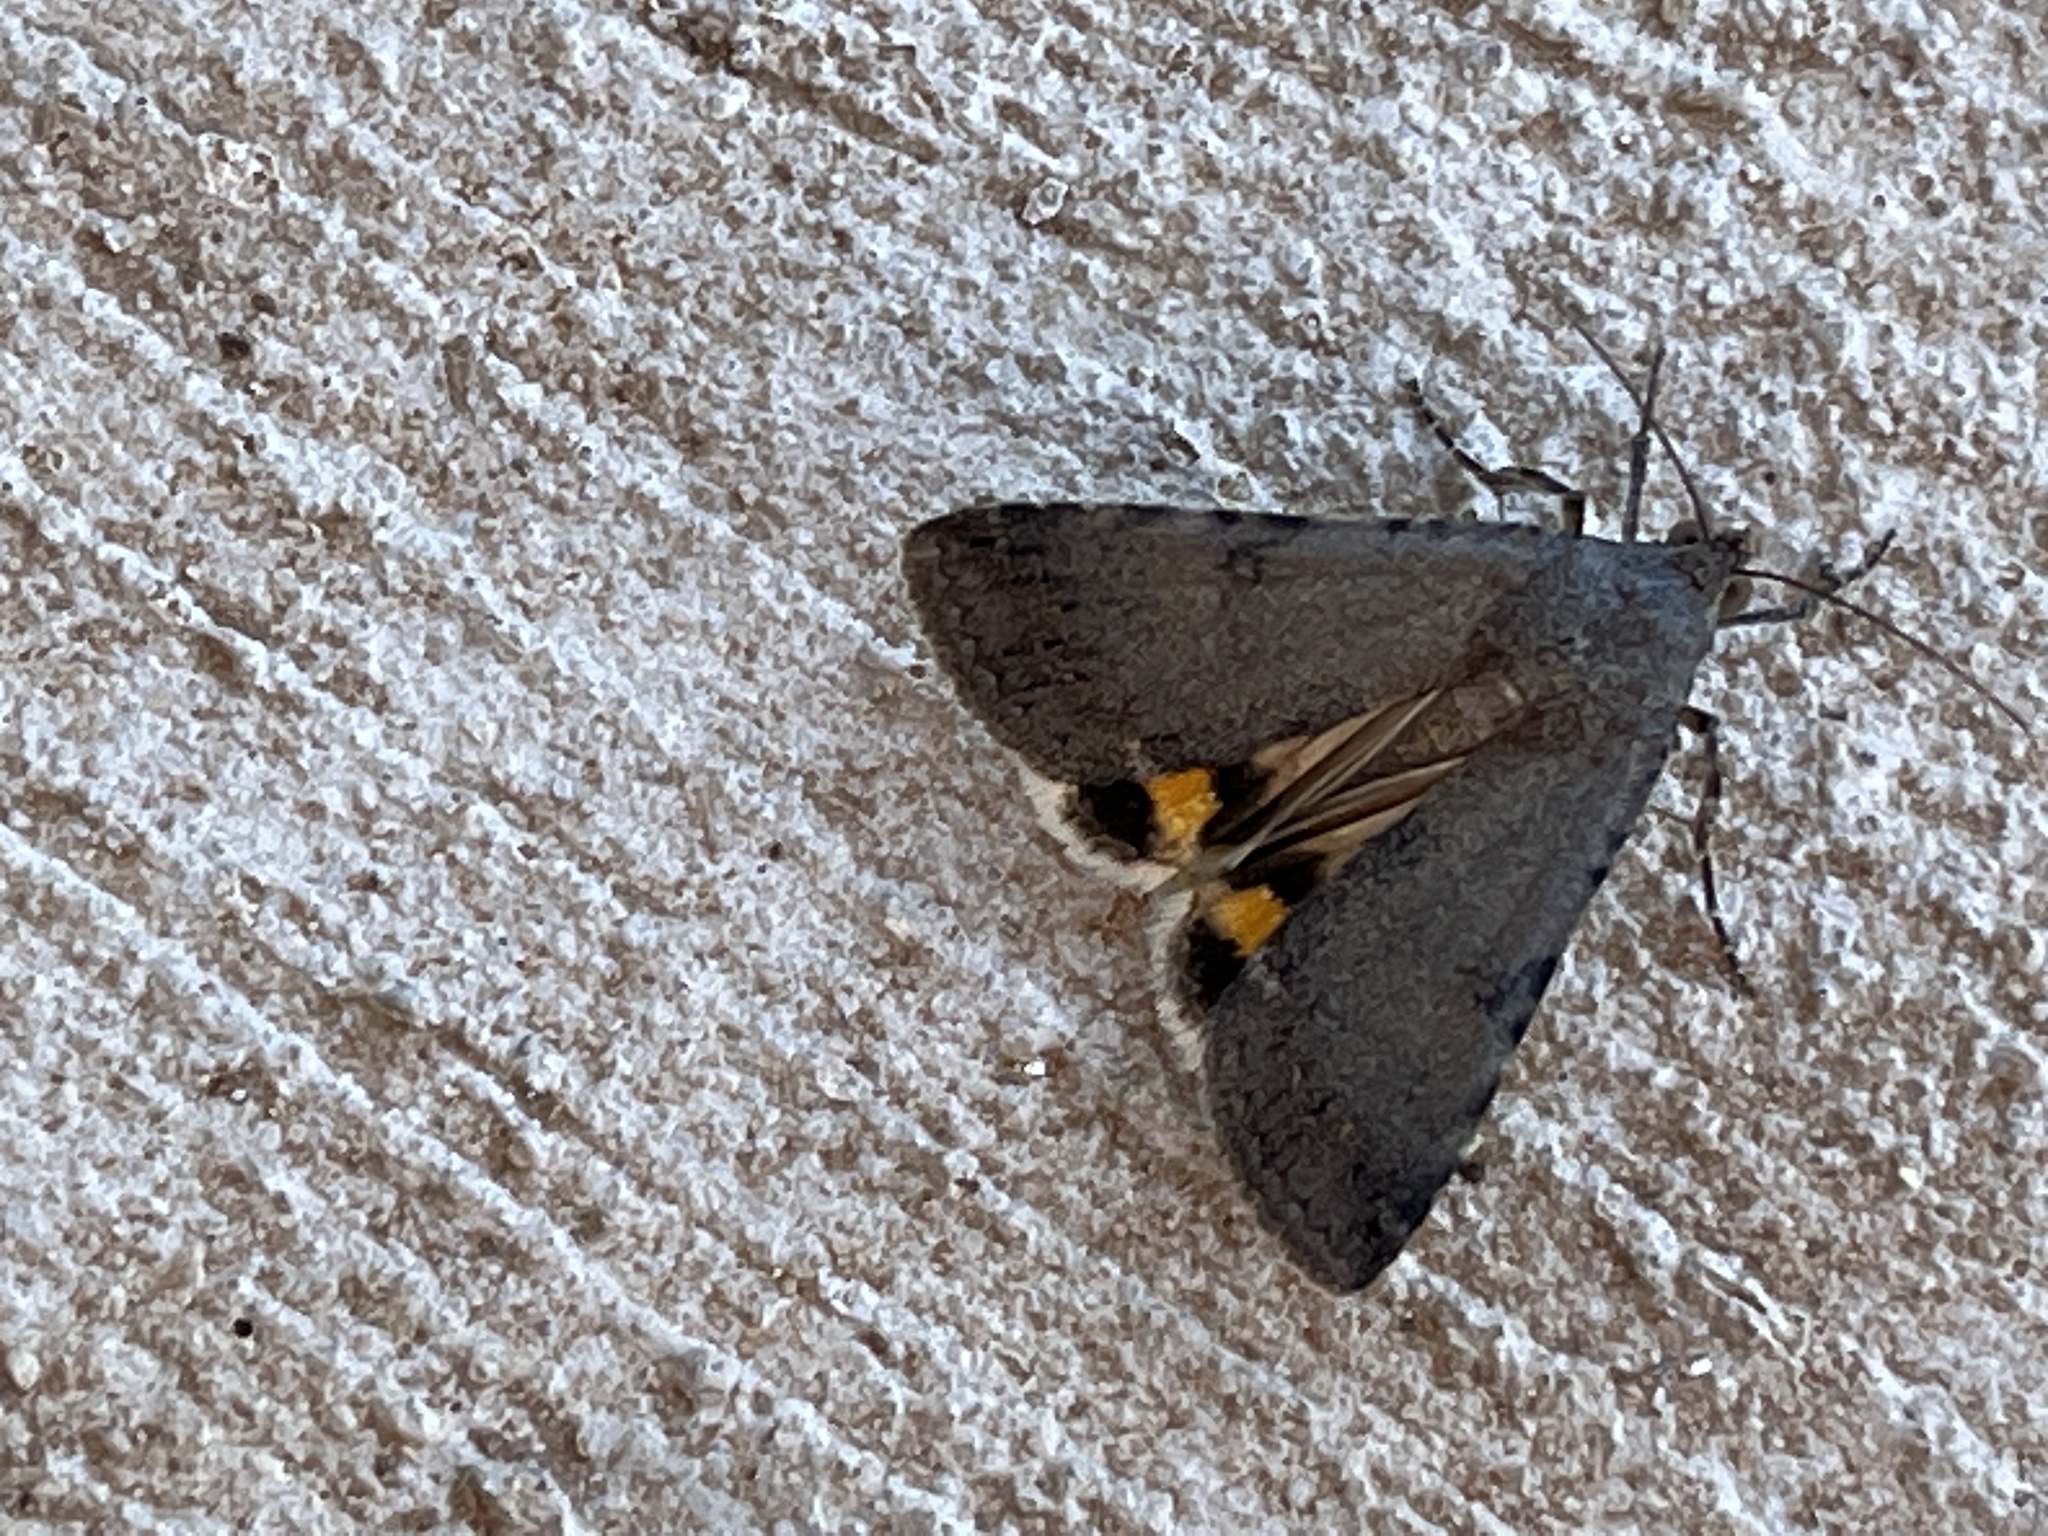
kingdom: Animalia
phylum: Arthropoda
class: Insecta
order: Lepidoptera
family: Erebidae
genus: Hypocala
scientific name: Hypocala andremona
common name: Hypocala moth
